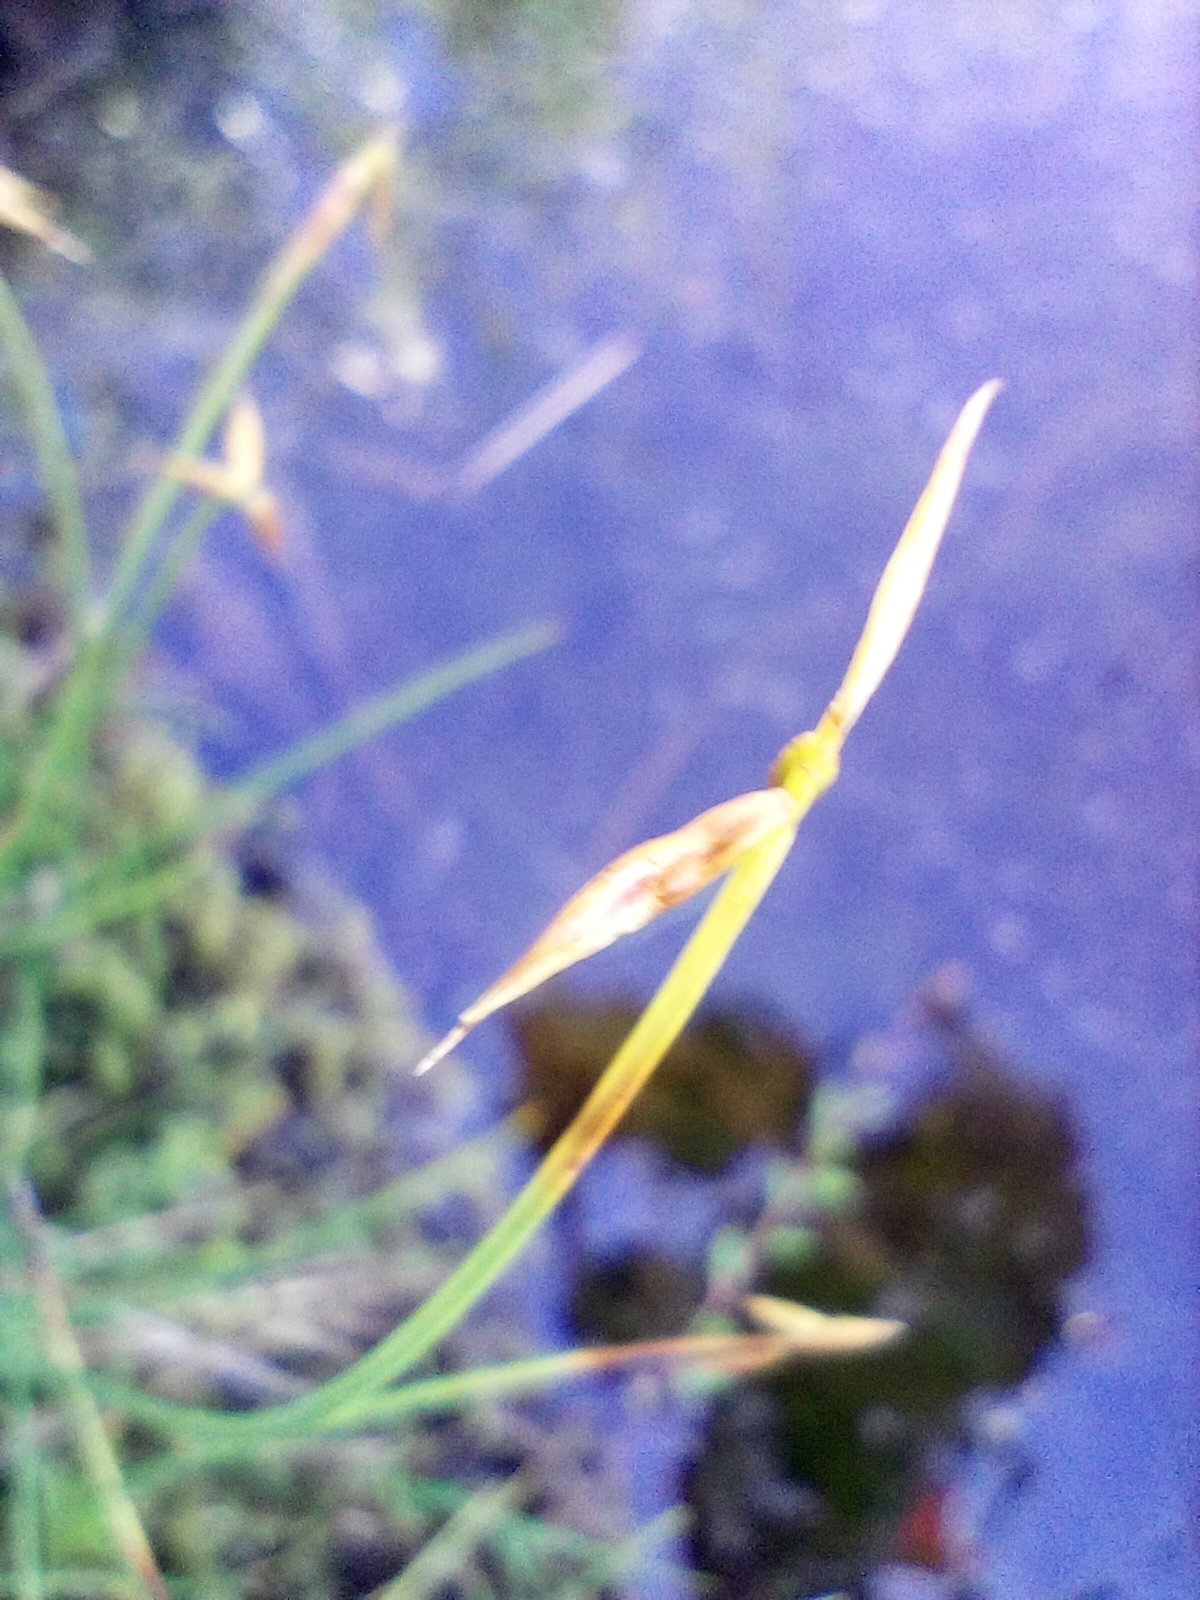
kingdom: Plantae
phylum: Tracheophyta
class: Liliopsida
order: Poales
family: Cyperaceae
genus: Carex
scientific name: Carex pauciflora
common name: Few-flowered sedge
